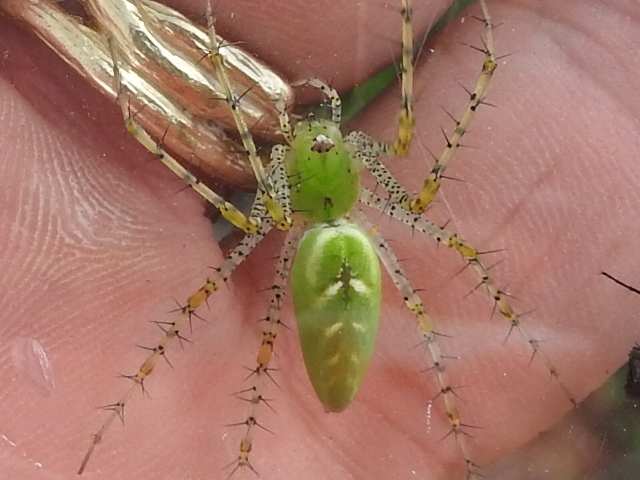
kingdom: Animalia
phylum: Arthropoda
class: Arachnida
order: Araneae
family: Oxyopidae
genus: Peucetia
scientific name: Peucetia viridans
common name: Lynx spiders
